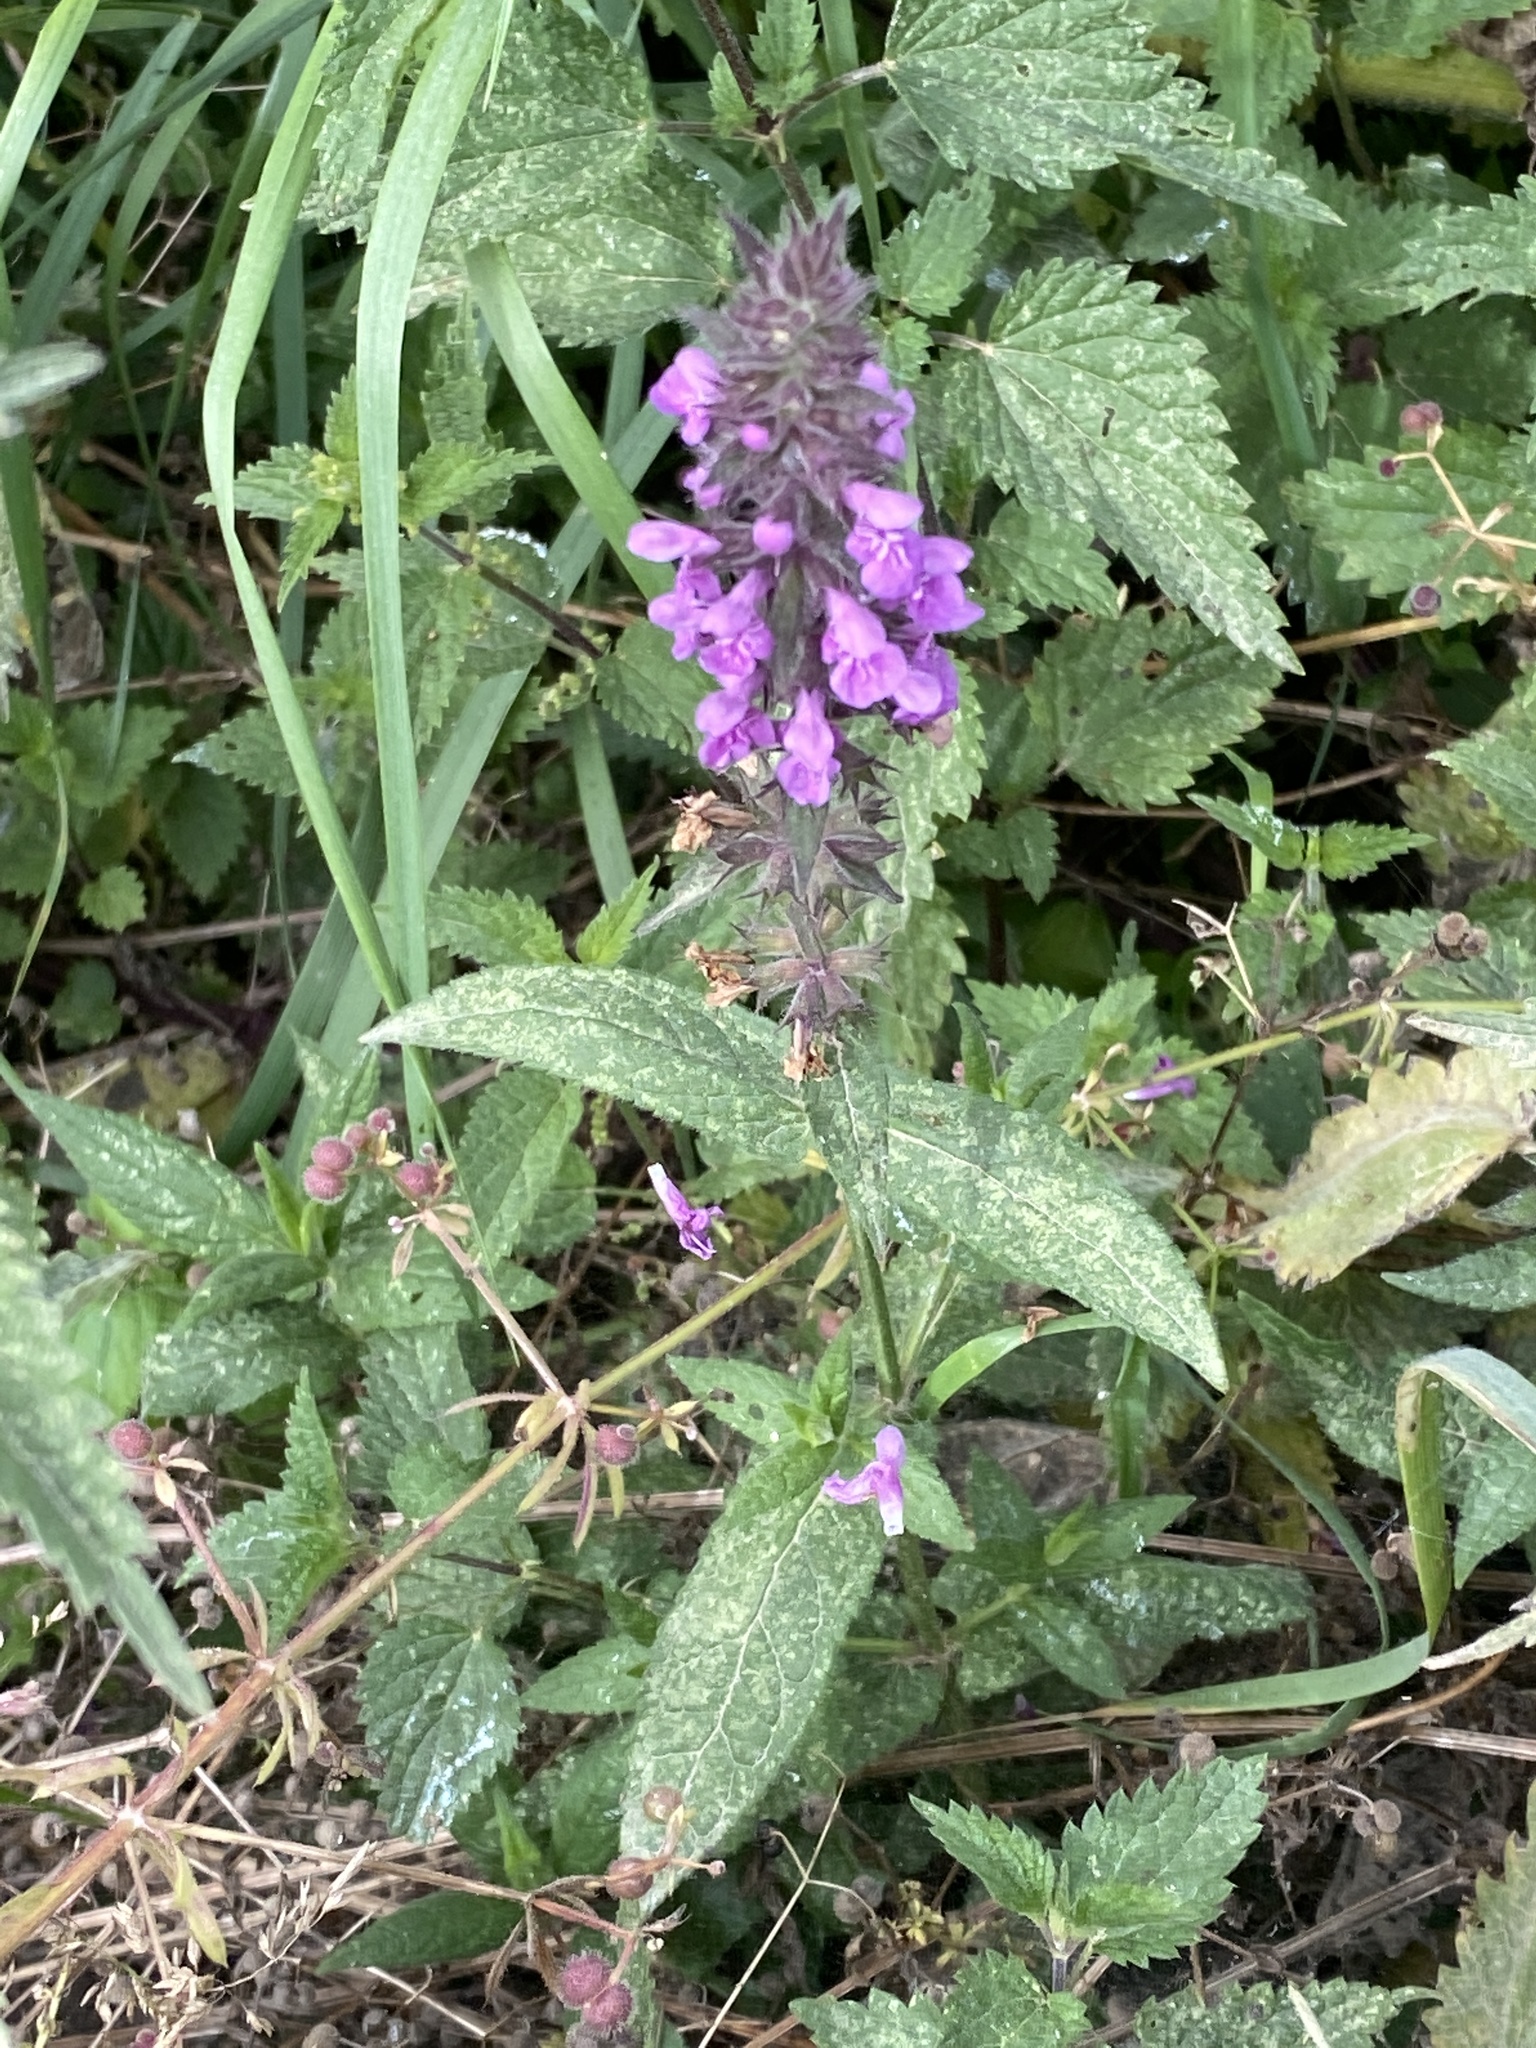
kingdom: Plantae
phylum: Tracheophyta
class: Magnoliopsida
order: Lamiales
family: Lamiaceae
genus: Stachys
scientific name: Stachys palustris
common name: Marsh woundwort
